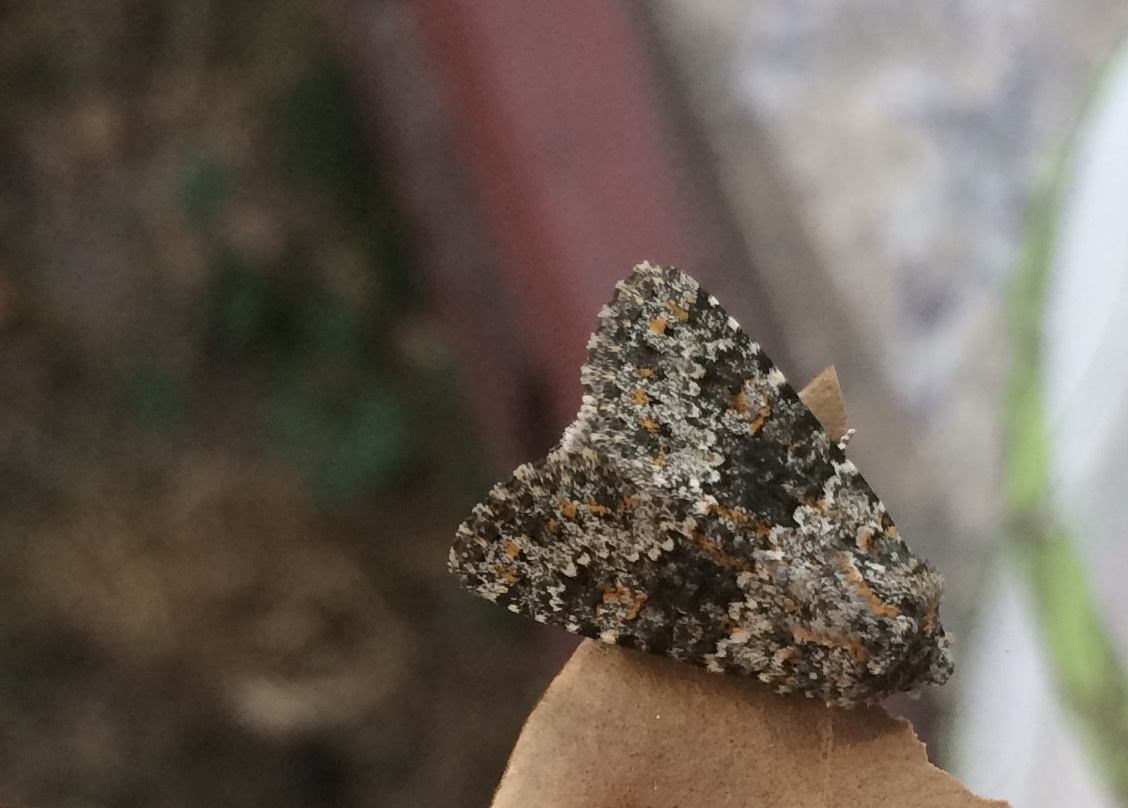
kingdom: Animalia
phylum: Arthropoda
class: Insecta
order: Lepidoptera
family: Noctuidae
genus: Hecatera
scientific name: Hecatera dysodea
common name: Small ranunculus
